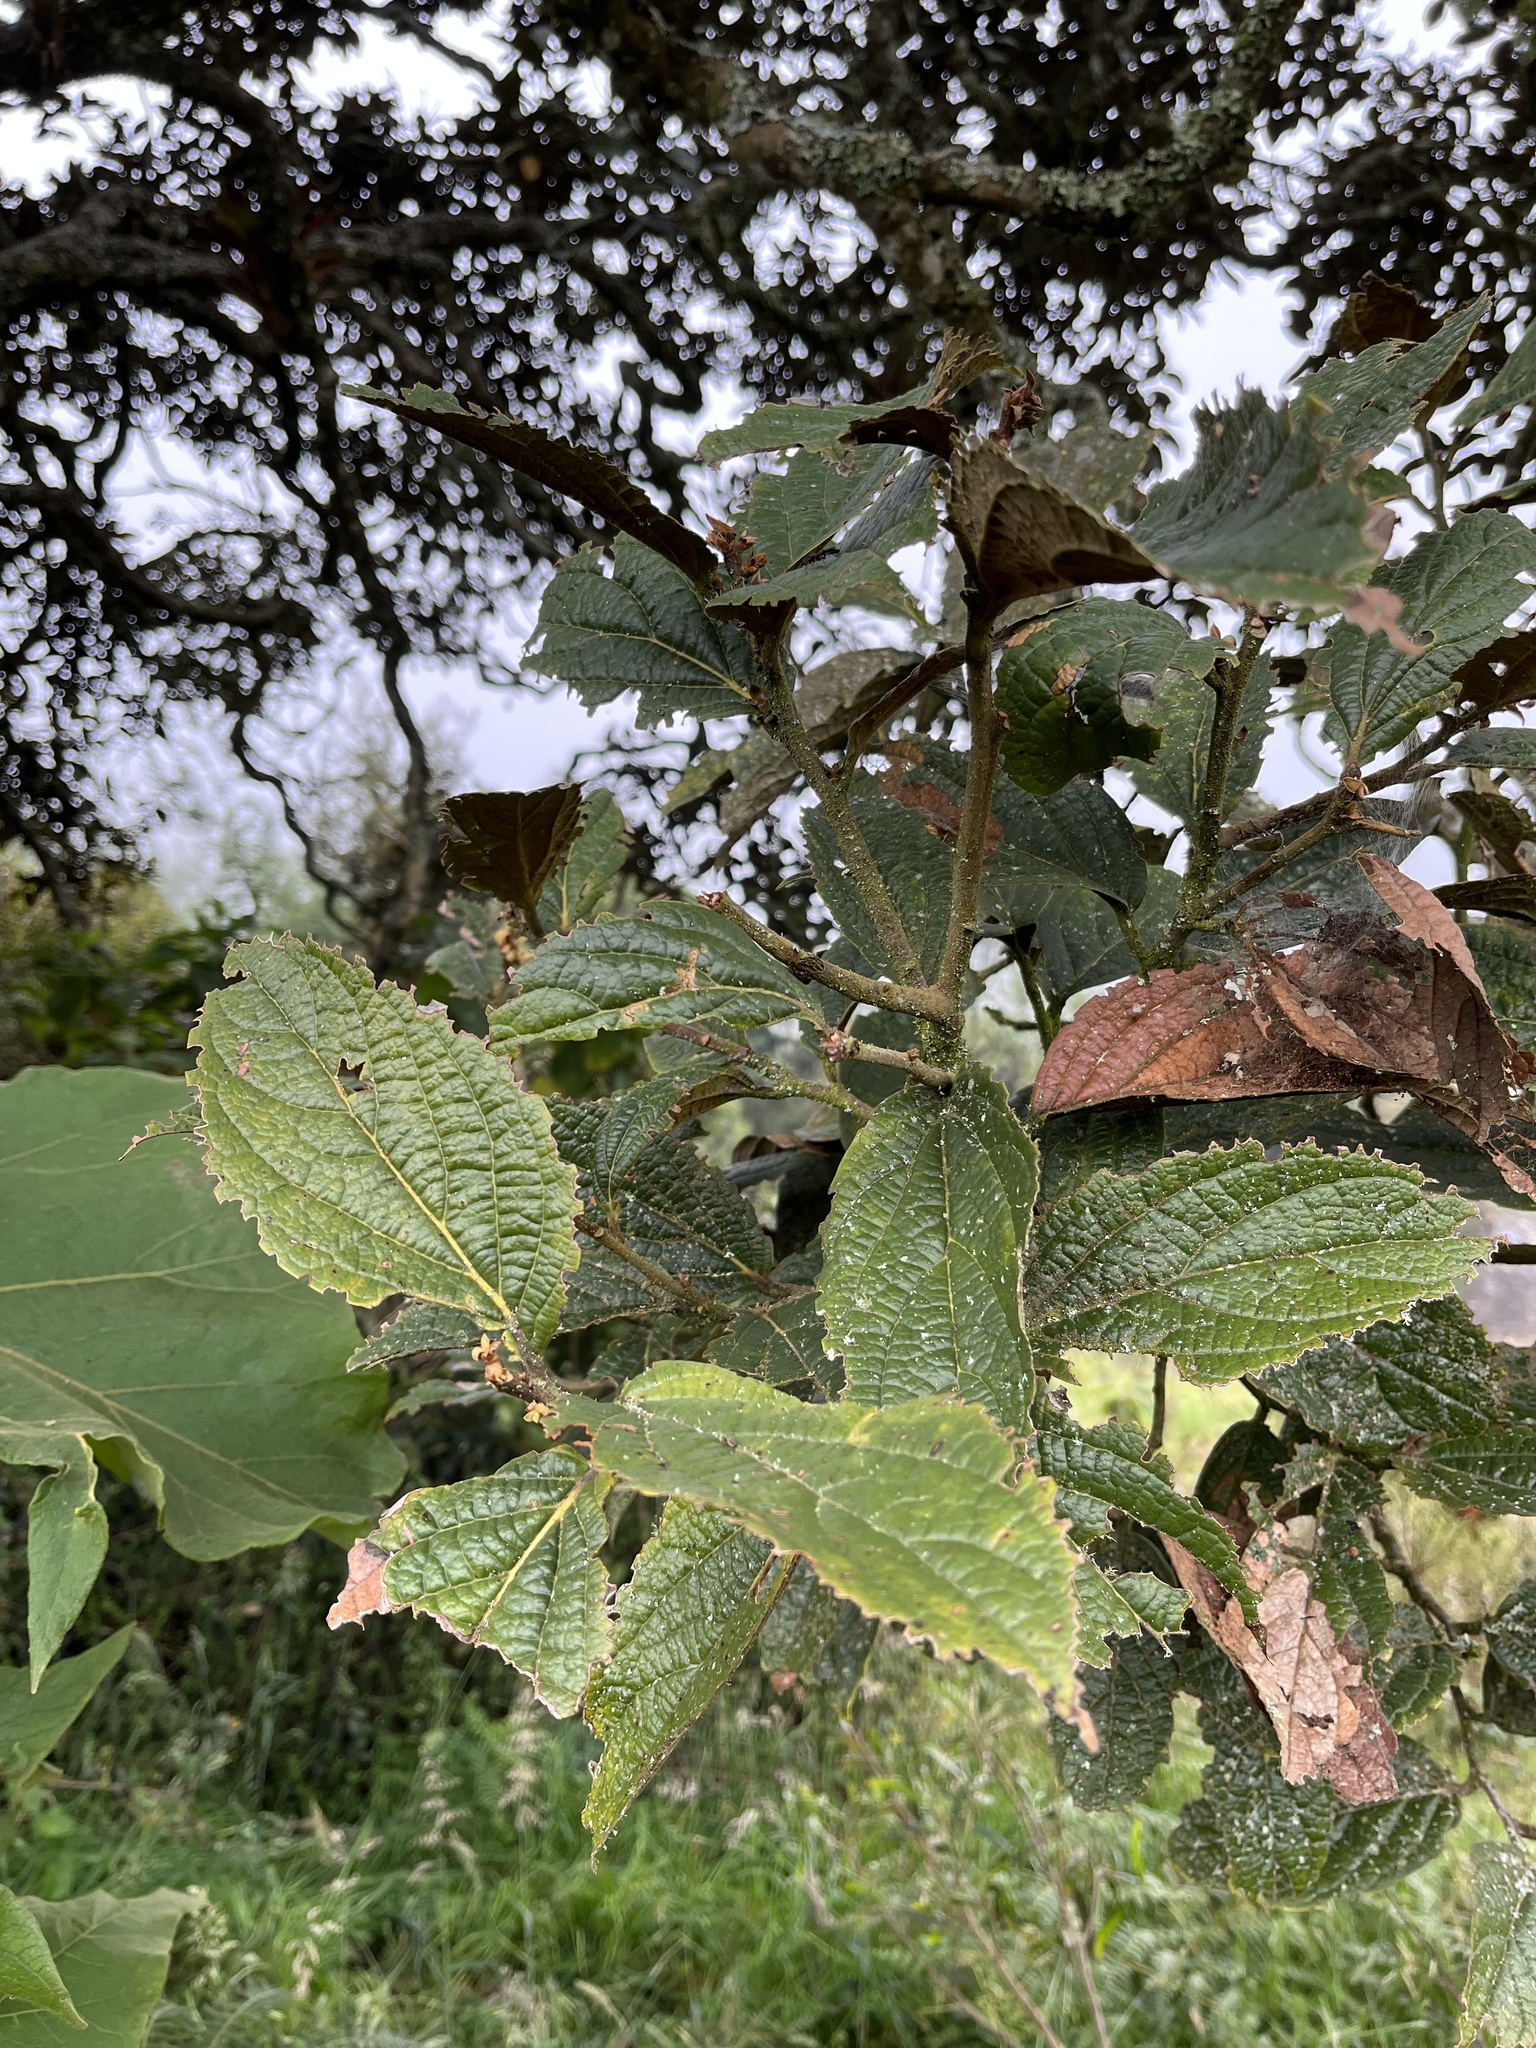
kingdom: Plantae
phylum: Tracheophyta
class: Magnoliopsida
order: Laurales
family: Lauraceae
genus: Ocotea
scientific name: Ocotea pedicellata
